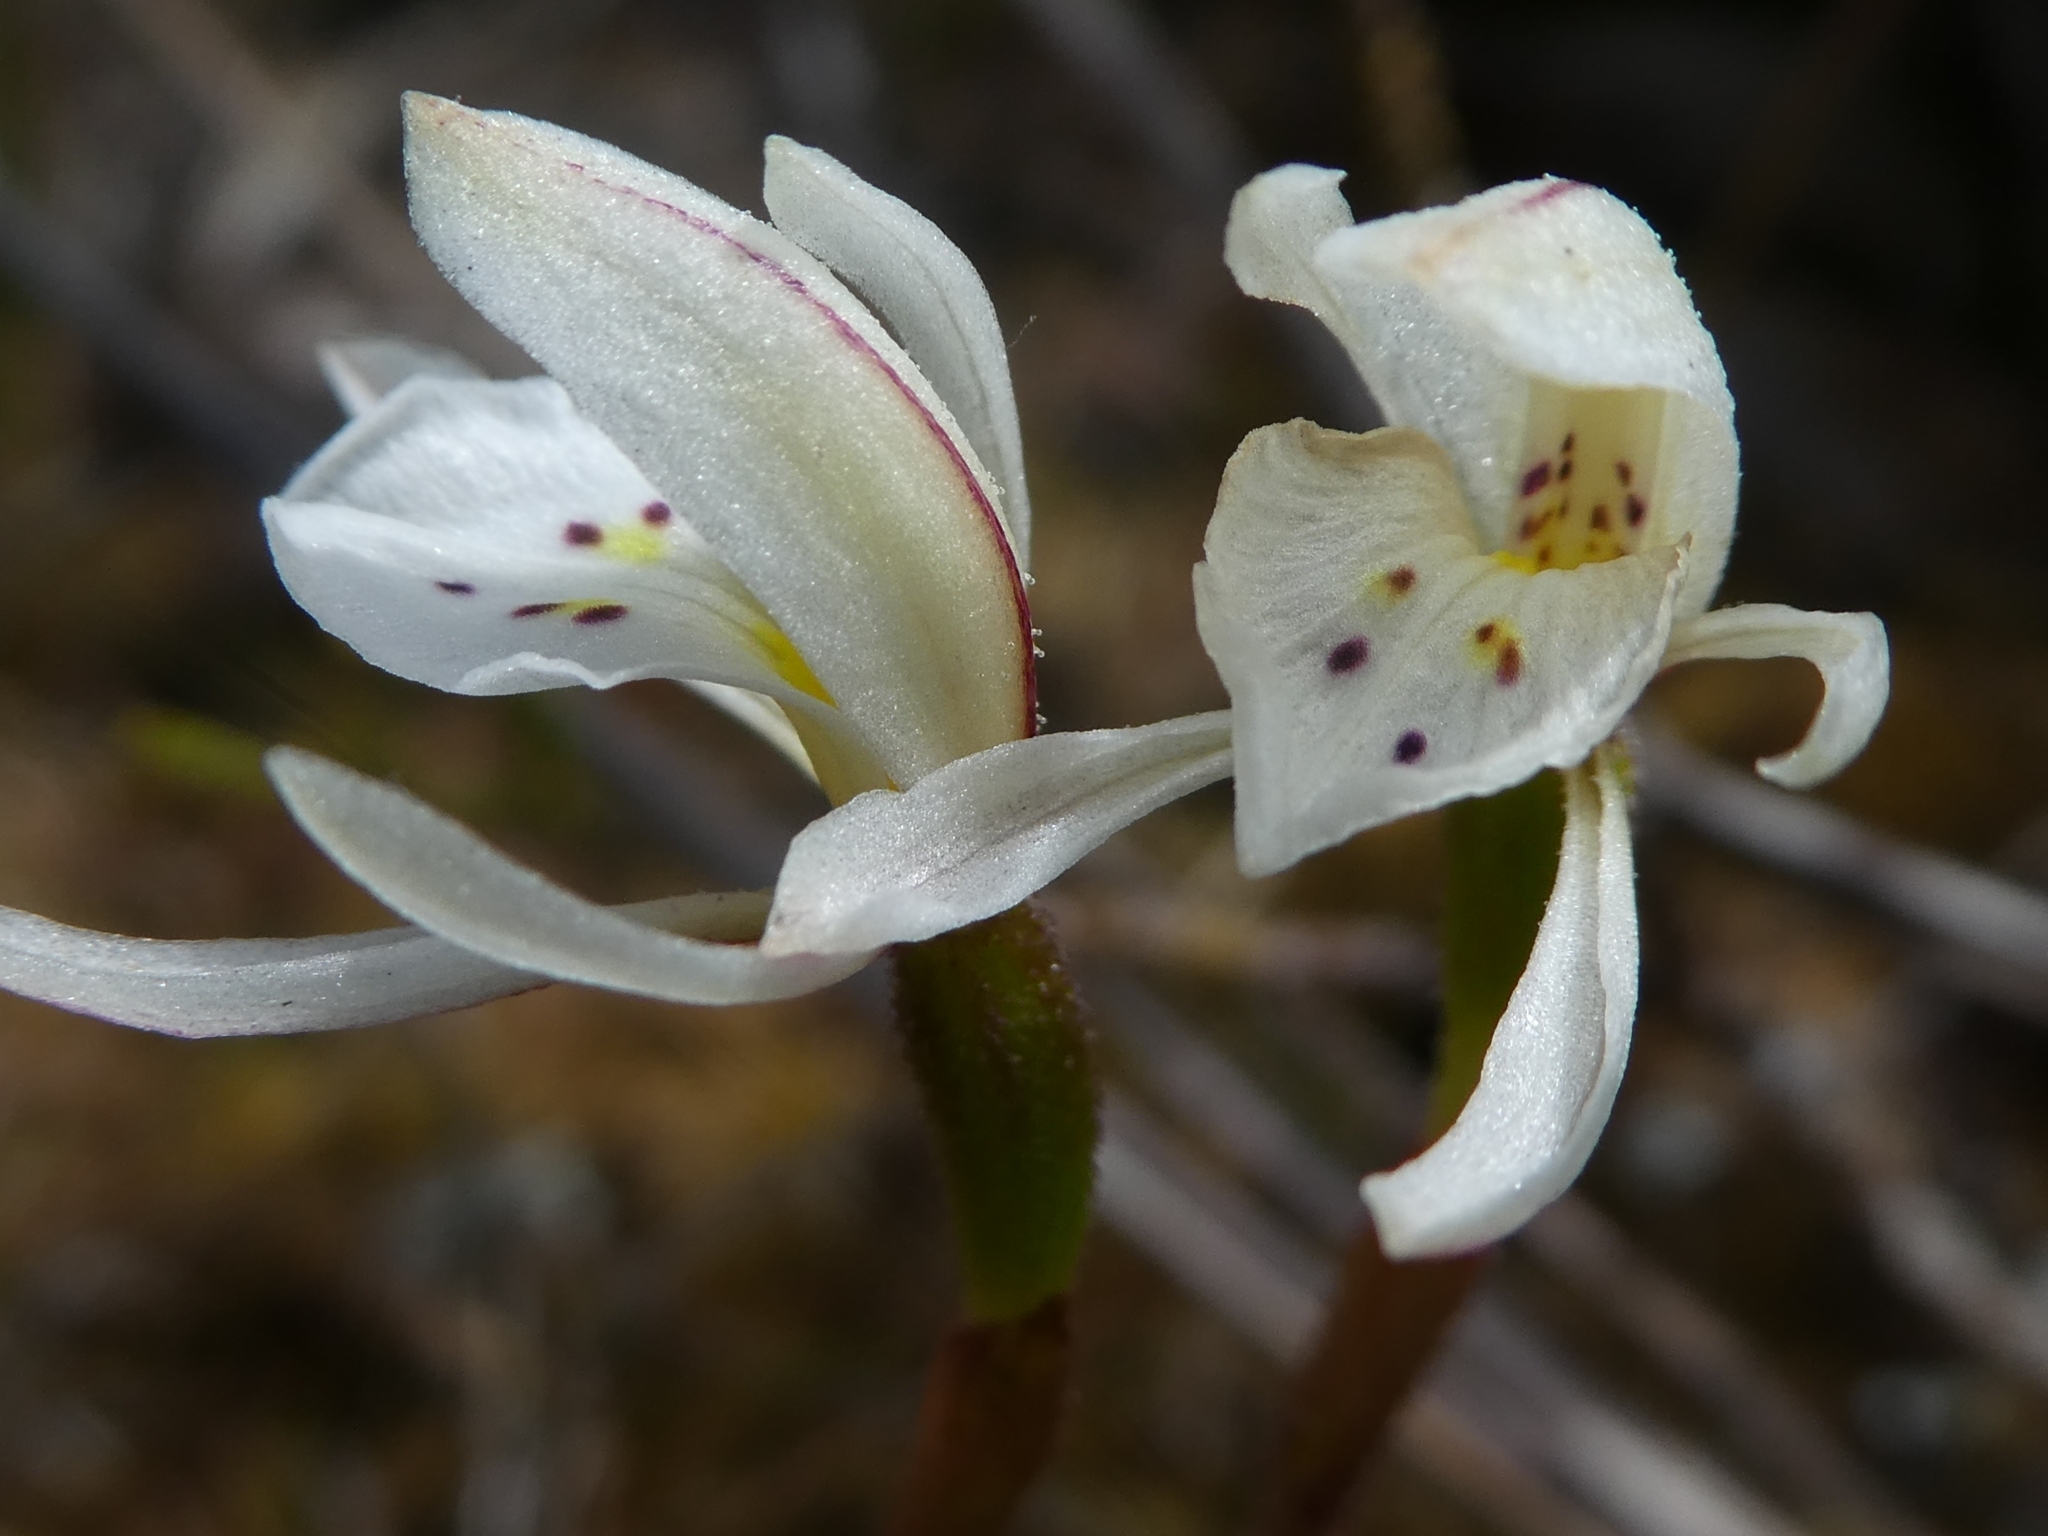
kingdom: Plantae
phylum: Tracheophyta
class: Liliopsida
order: Asparagales
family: Orchidaceae
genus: Aporostylis
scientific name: Aporostylis bifolia
